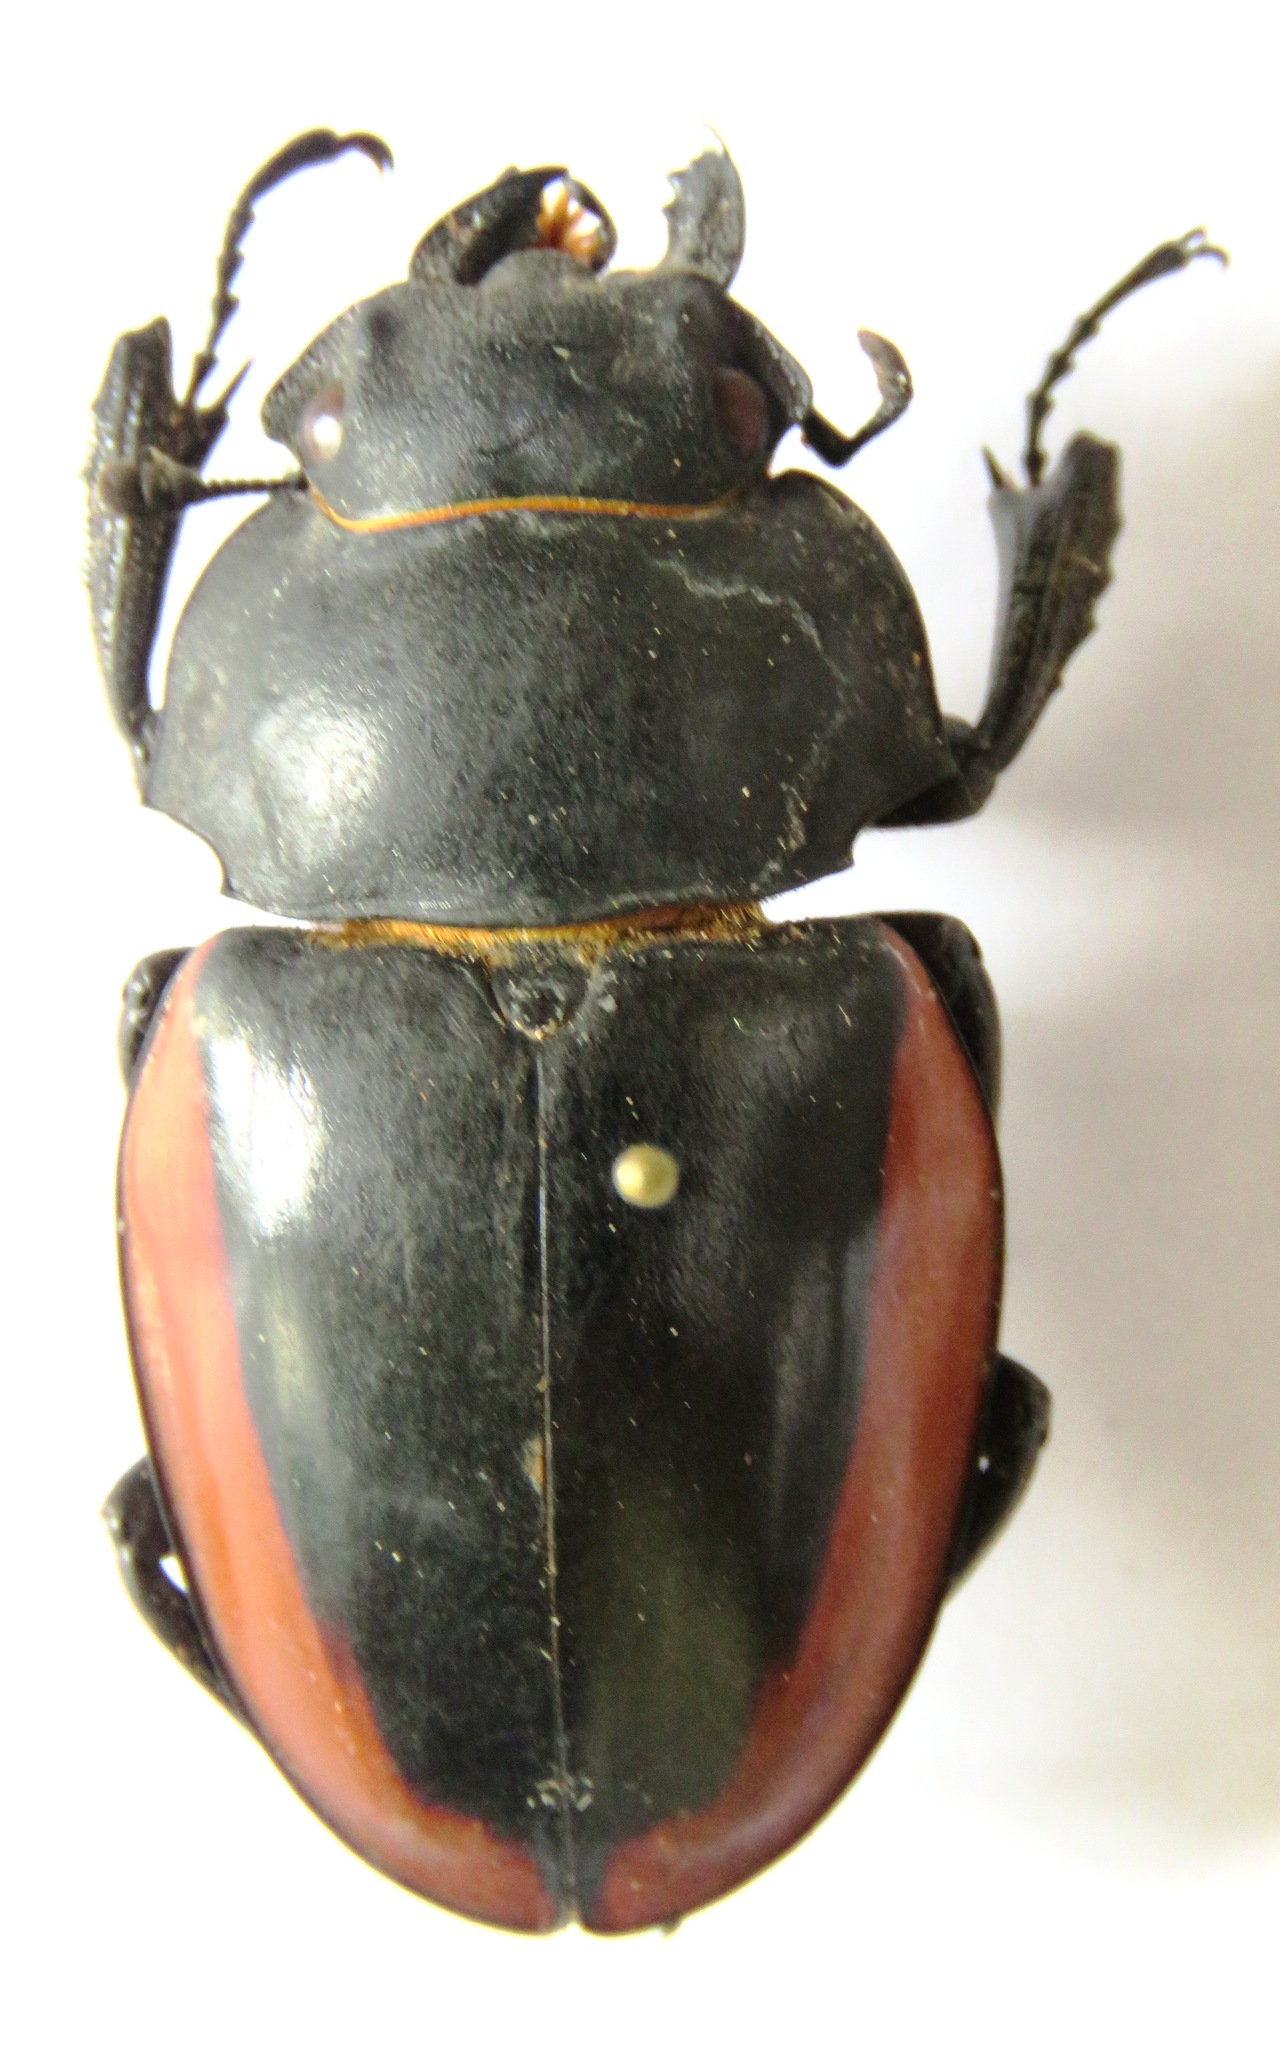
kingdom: Animalia
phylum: Arthropoda
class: Insecta
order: Coleoptera
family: Lucanidae
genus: Odontolabis
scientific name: Odontolabis cuvera
